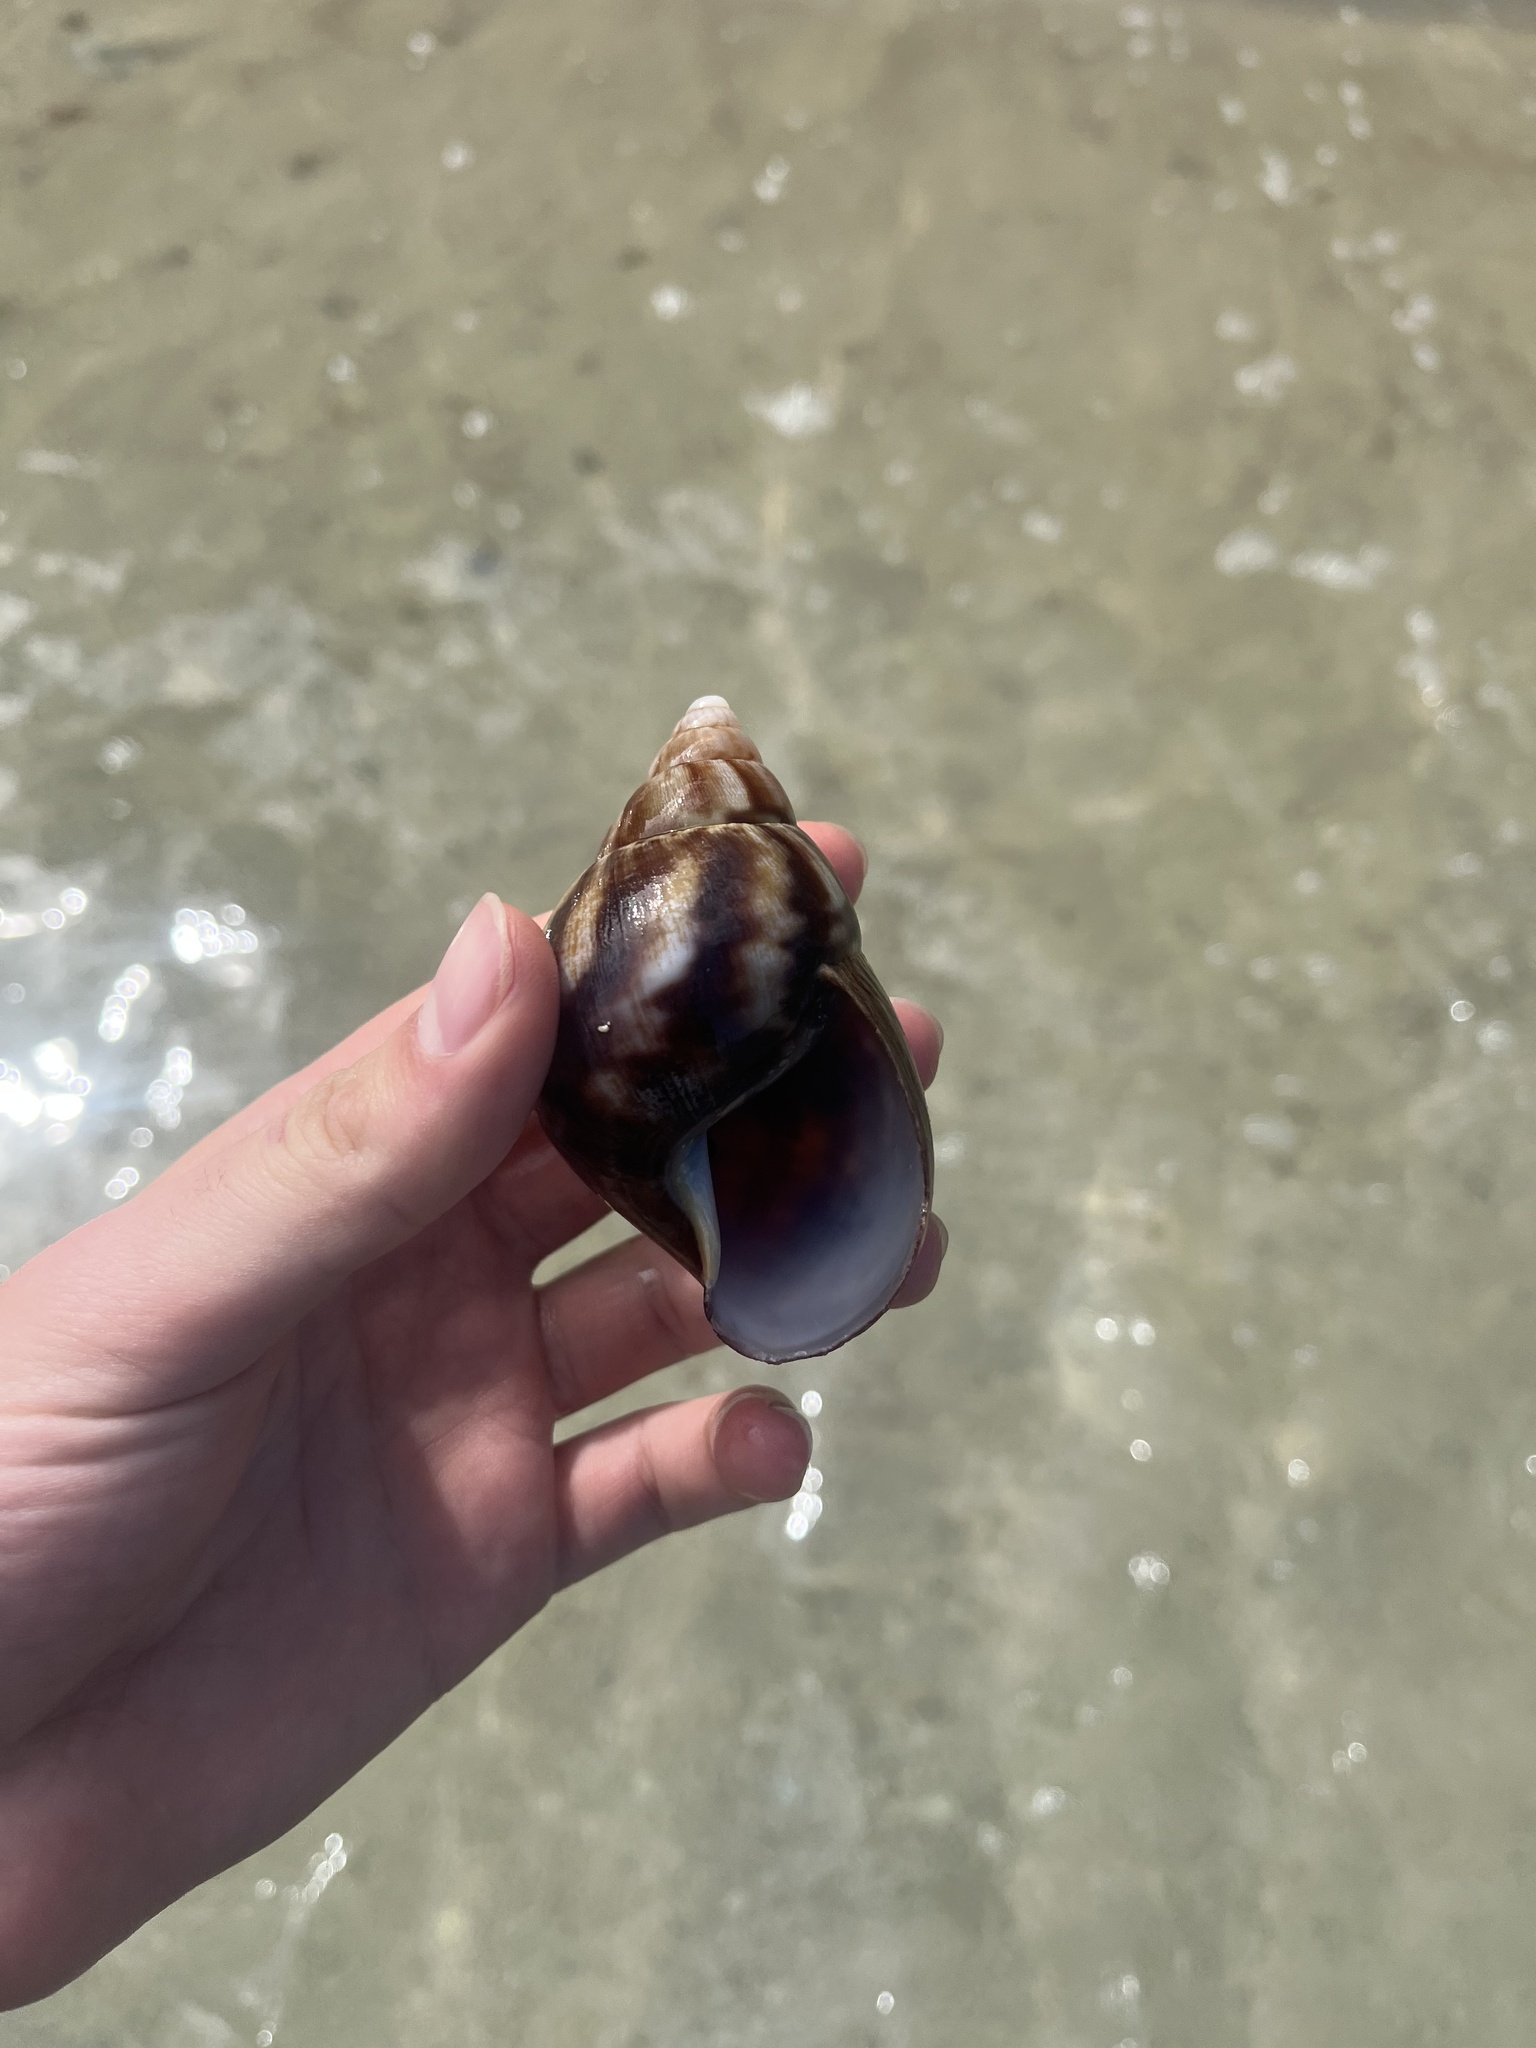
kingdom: Animalia
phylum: Mollusca
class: Gastropoda
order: Stylommatophora
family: Achatinidae
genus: Lissachatina
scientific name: Lissachatina fulica
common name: Giant african snail
